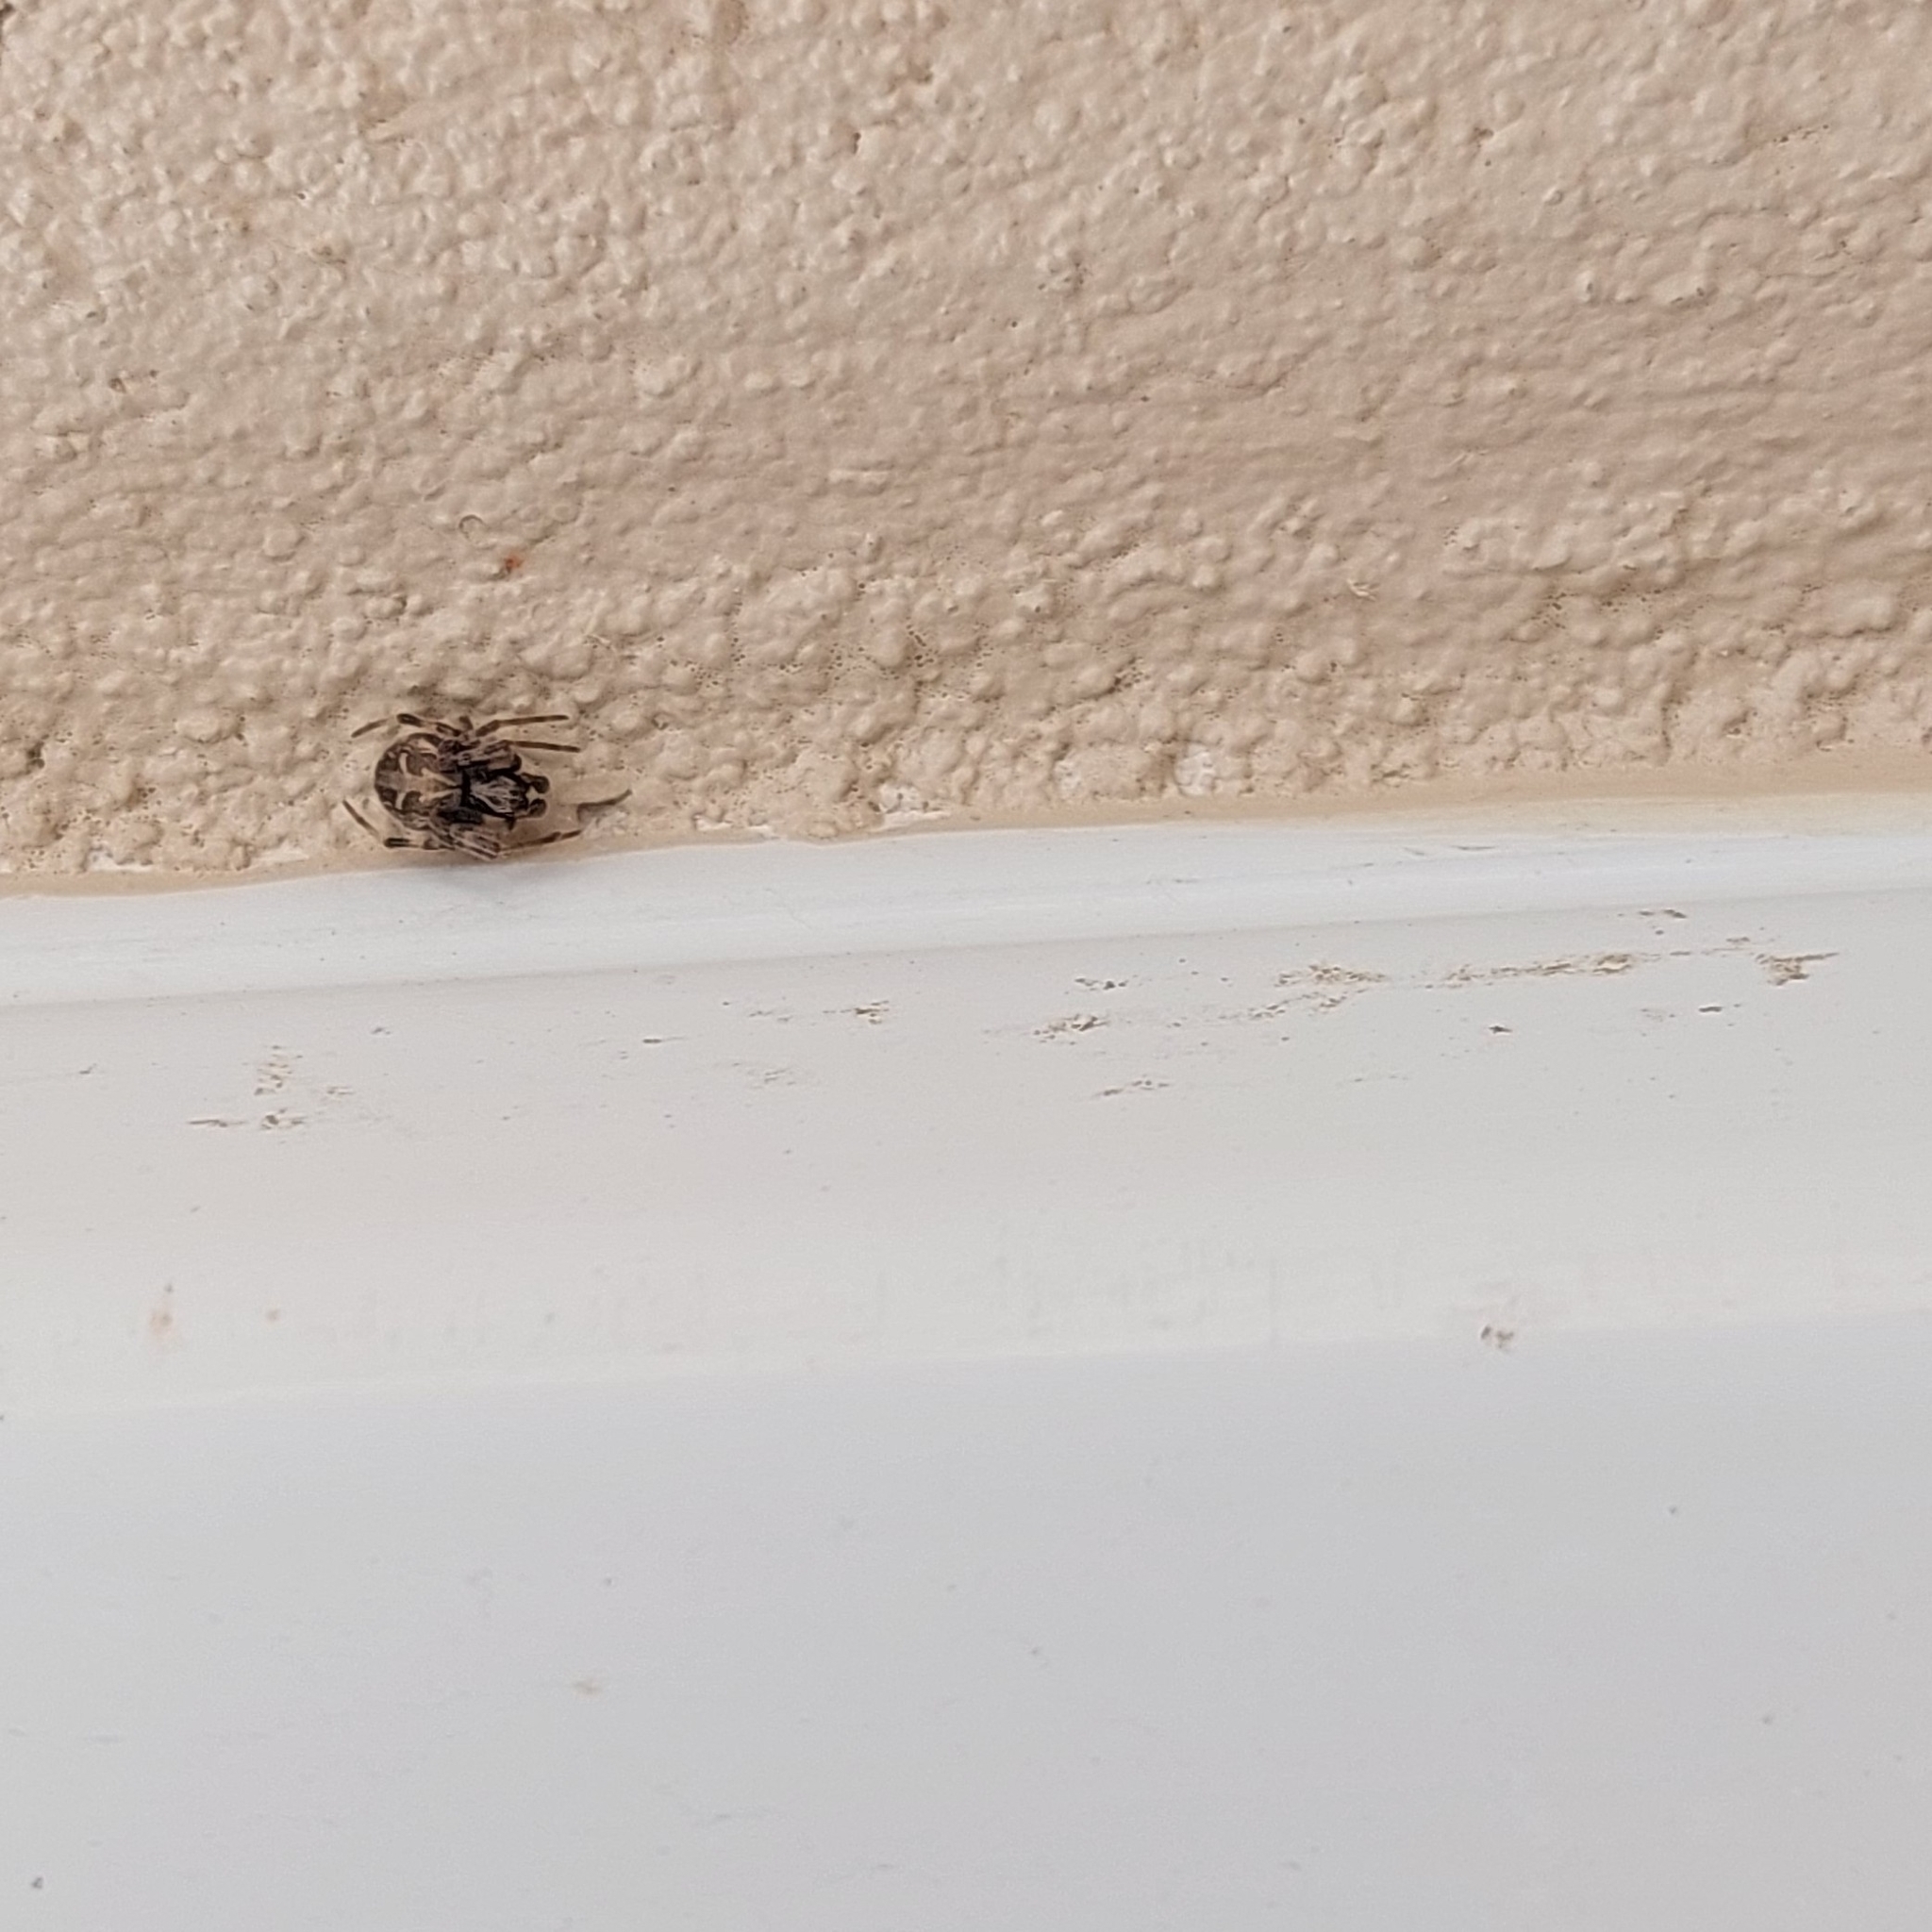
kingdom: Animalia
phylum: Arthropoda
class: Arachnida
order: Araneae
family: Araneidae
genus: Metepeira
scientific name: Metepeira
